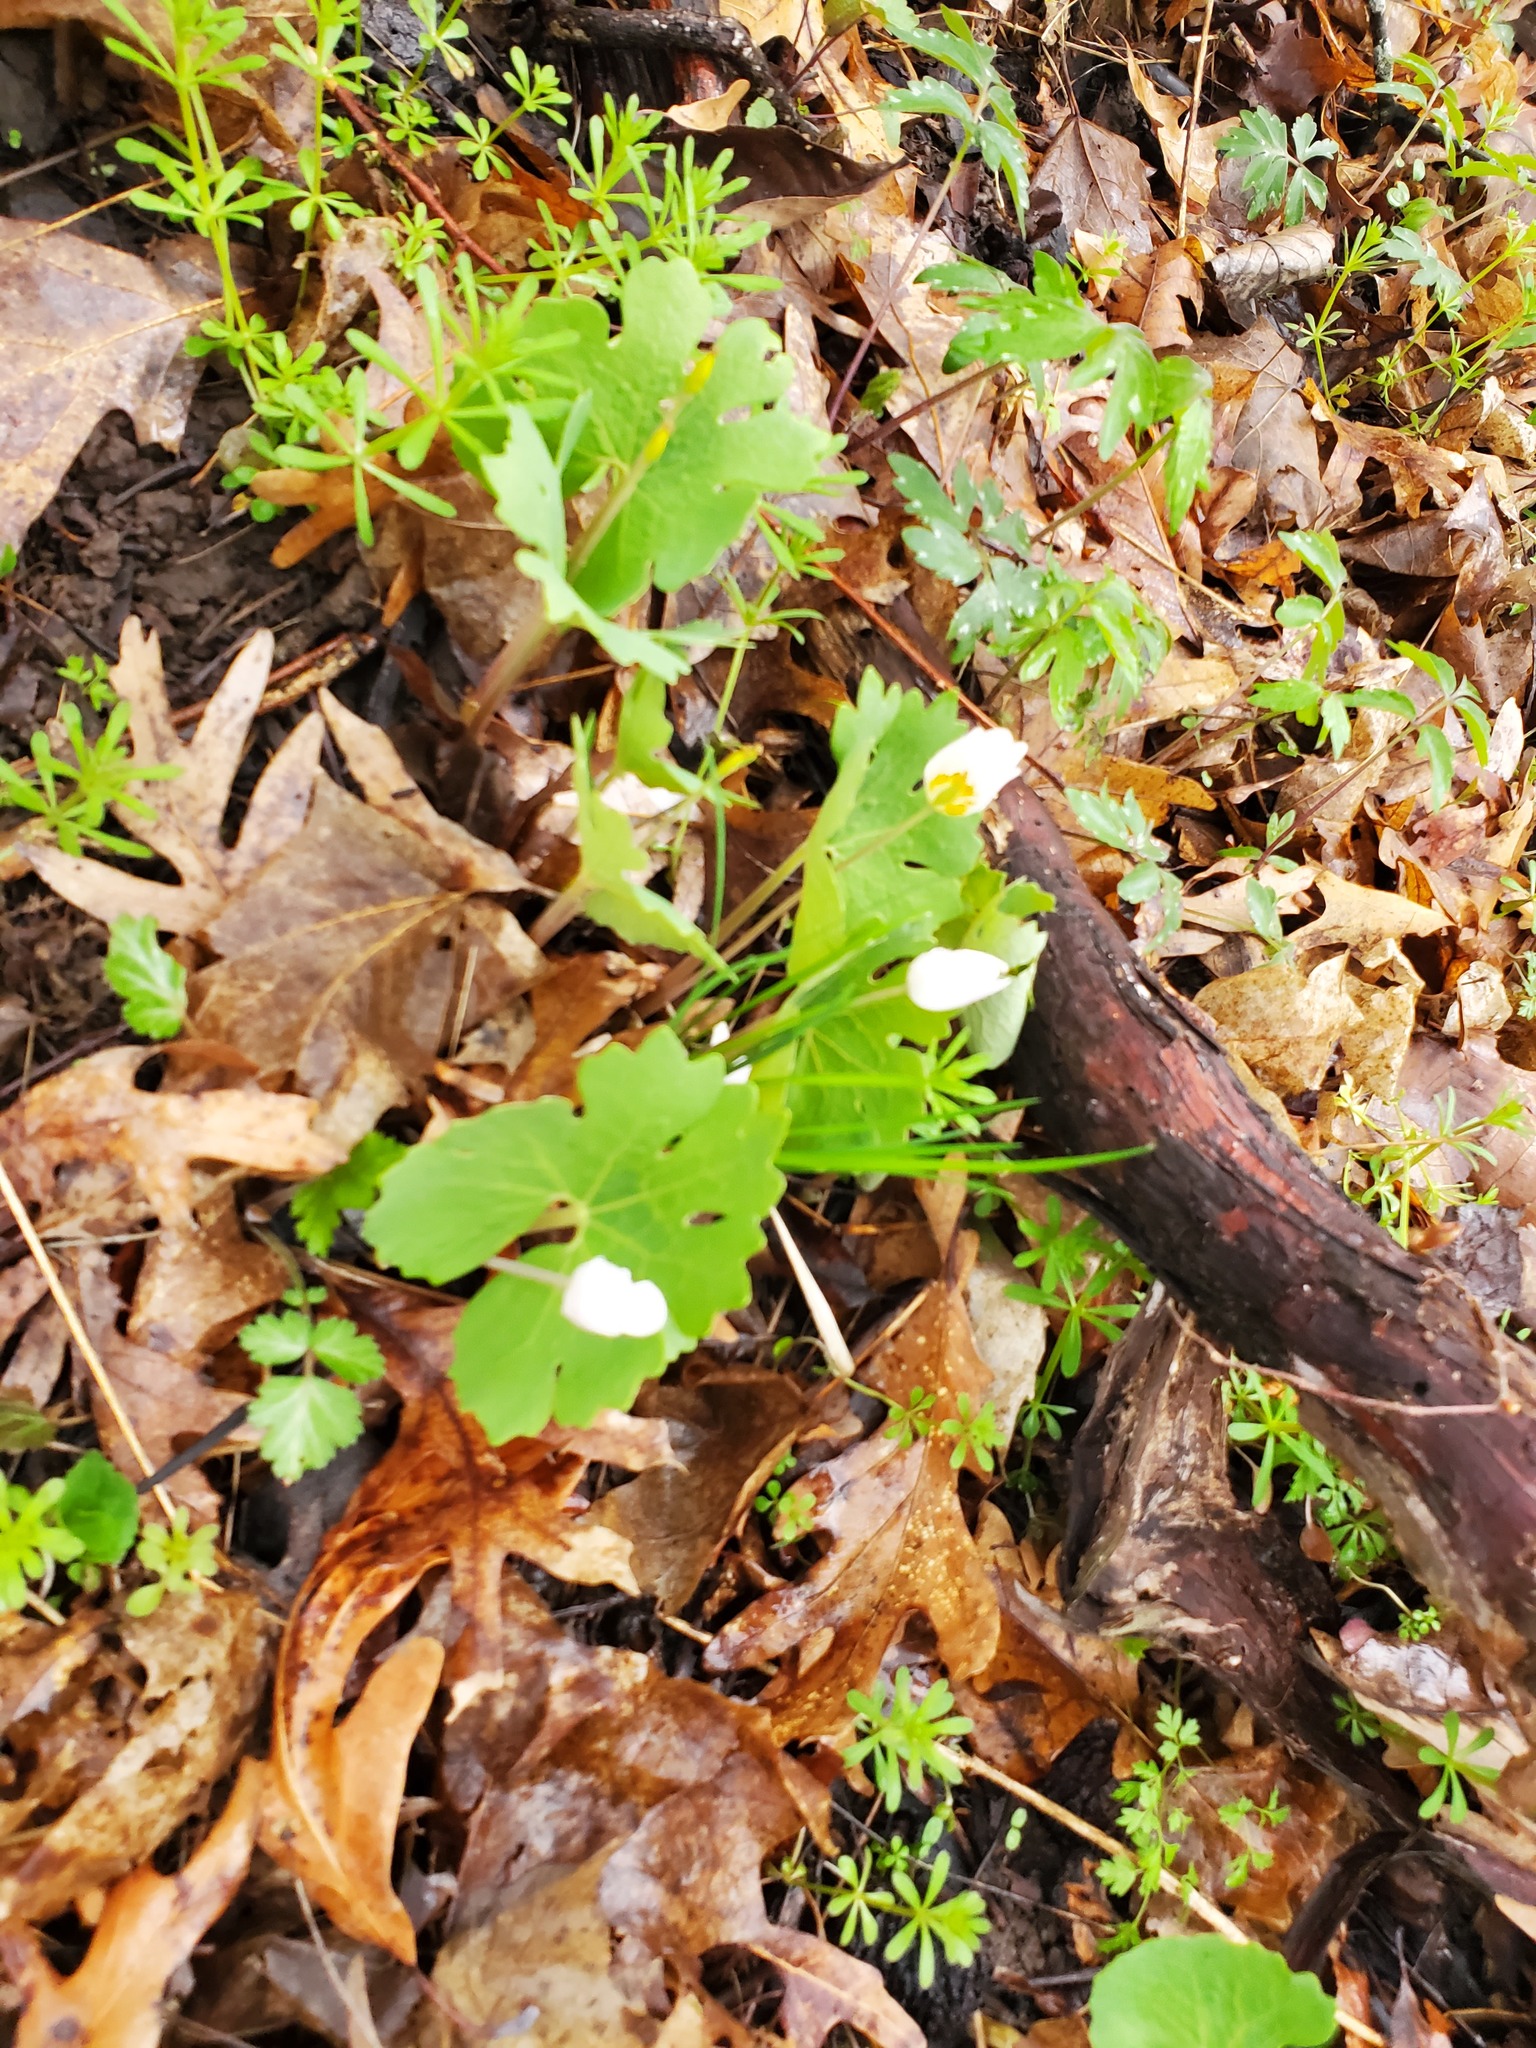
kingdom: Plantae
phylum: Tracheophyta
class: Magnoliopsida
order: Ranunculales
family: Papaveraceae
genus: Sanguinaria
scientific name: Sanguinaria canadensis
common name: Bloodroot
